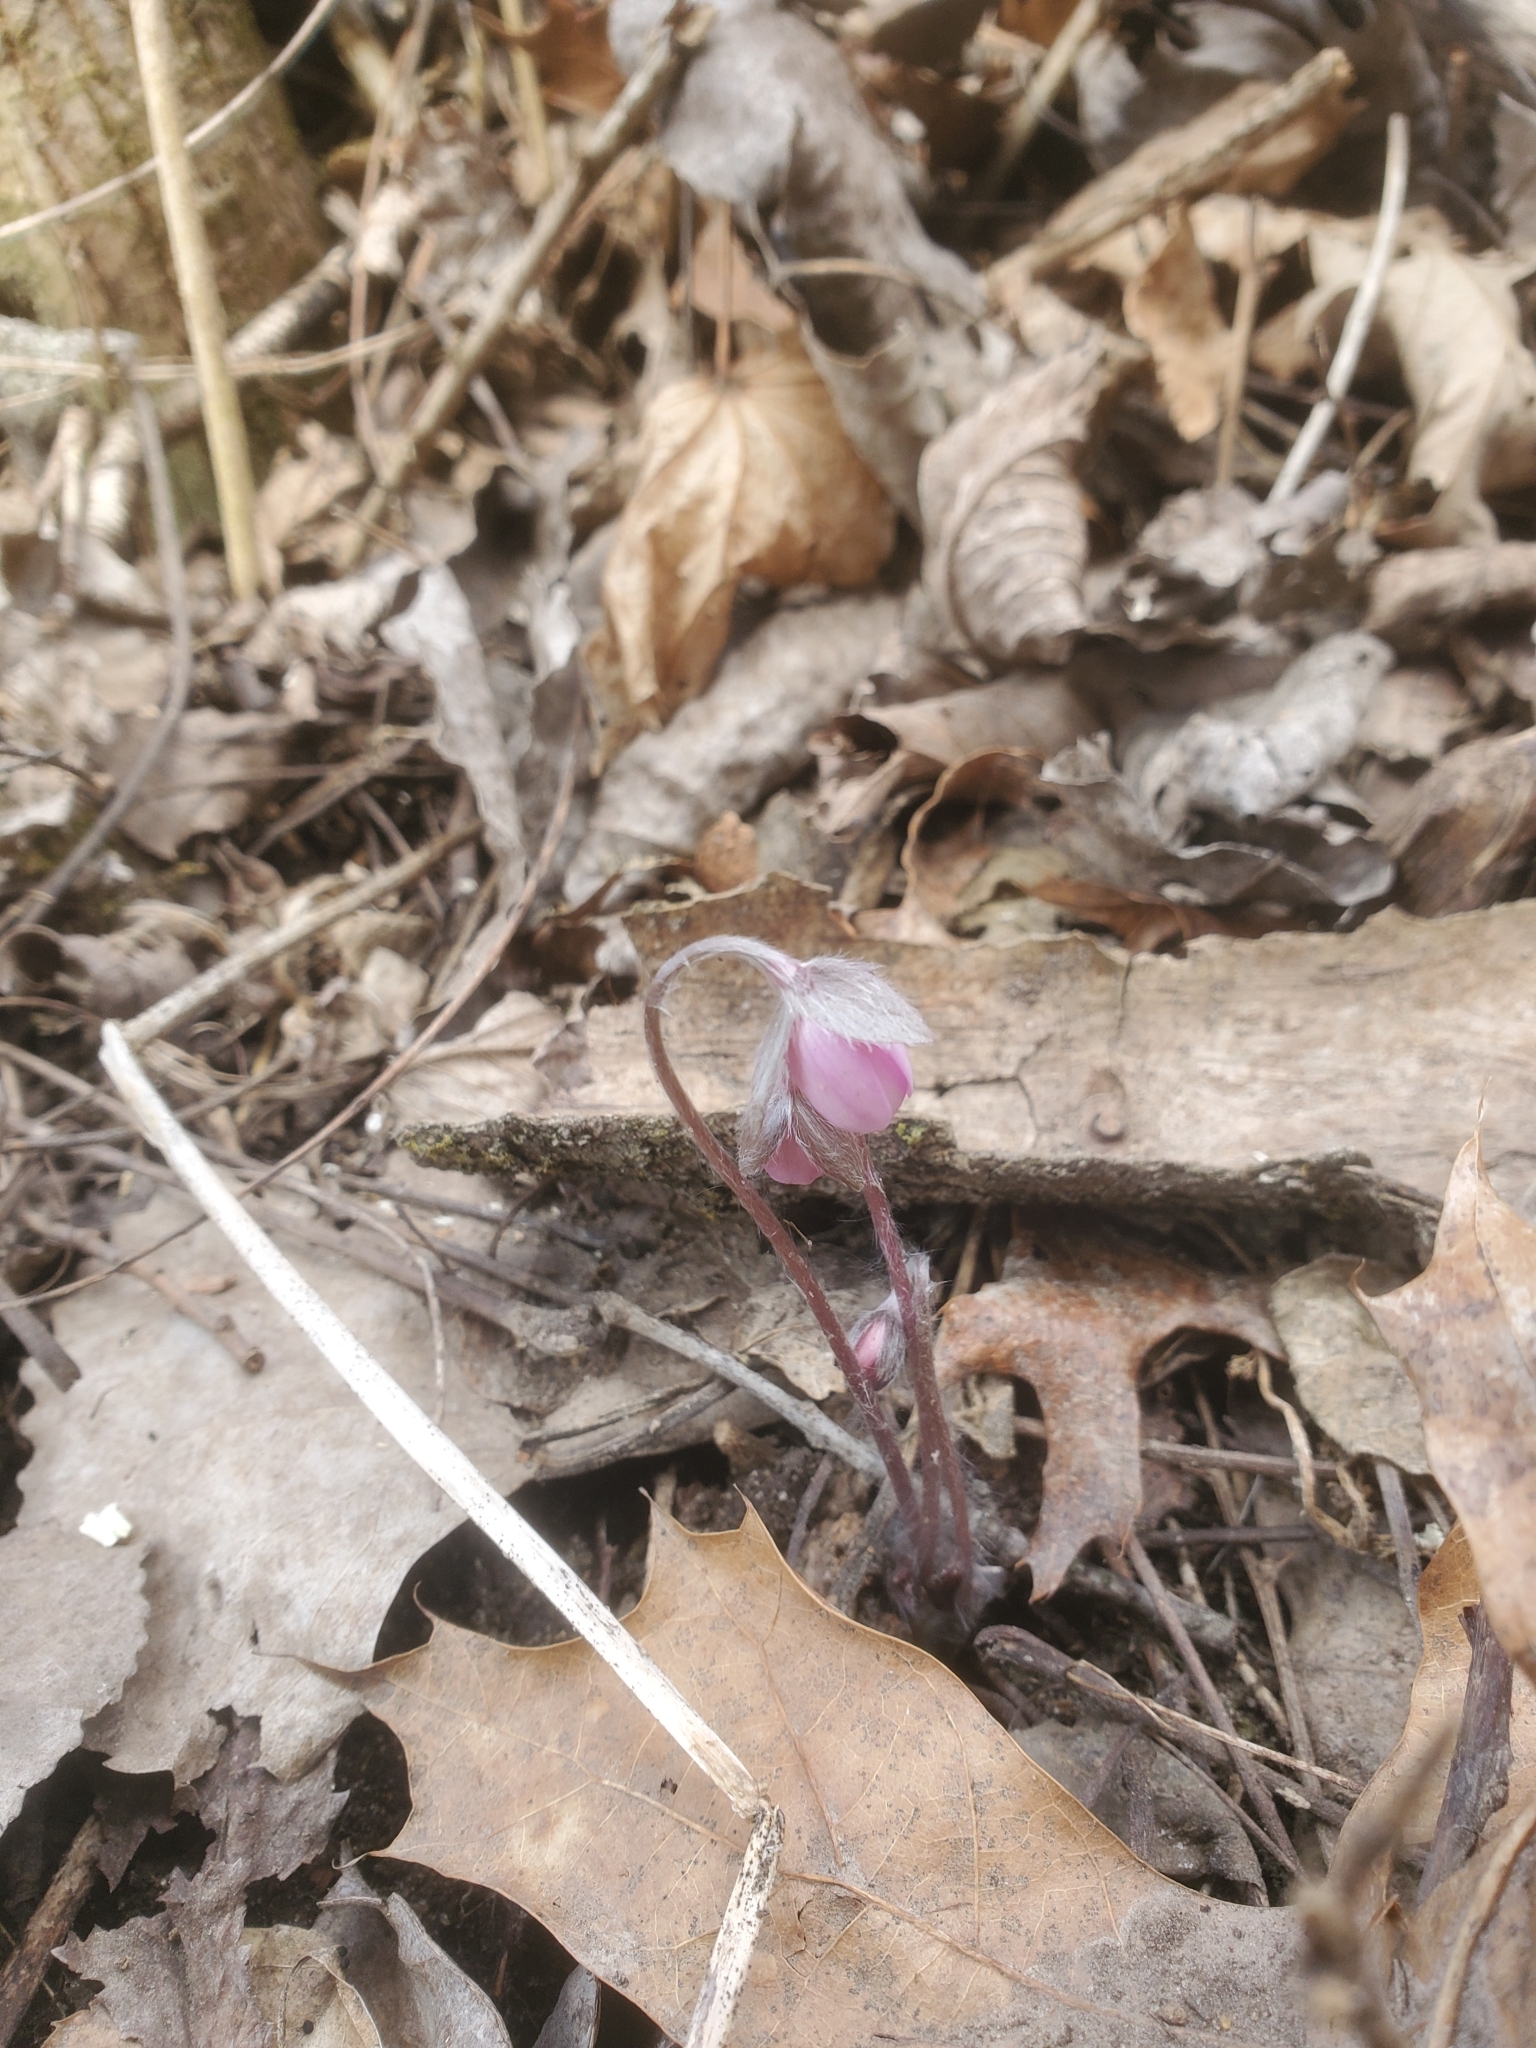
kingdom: Plantae
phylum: Tracheophyta
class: Magnoliopsida
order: Ranunculales
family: Ranunculaceae
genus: Hepatica
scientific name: Hepatica acutiloba
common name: Sharp-lobed hepatica
